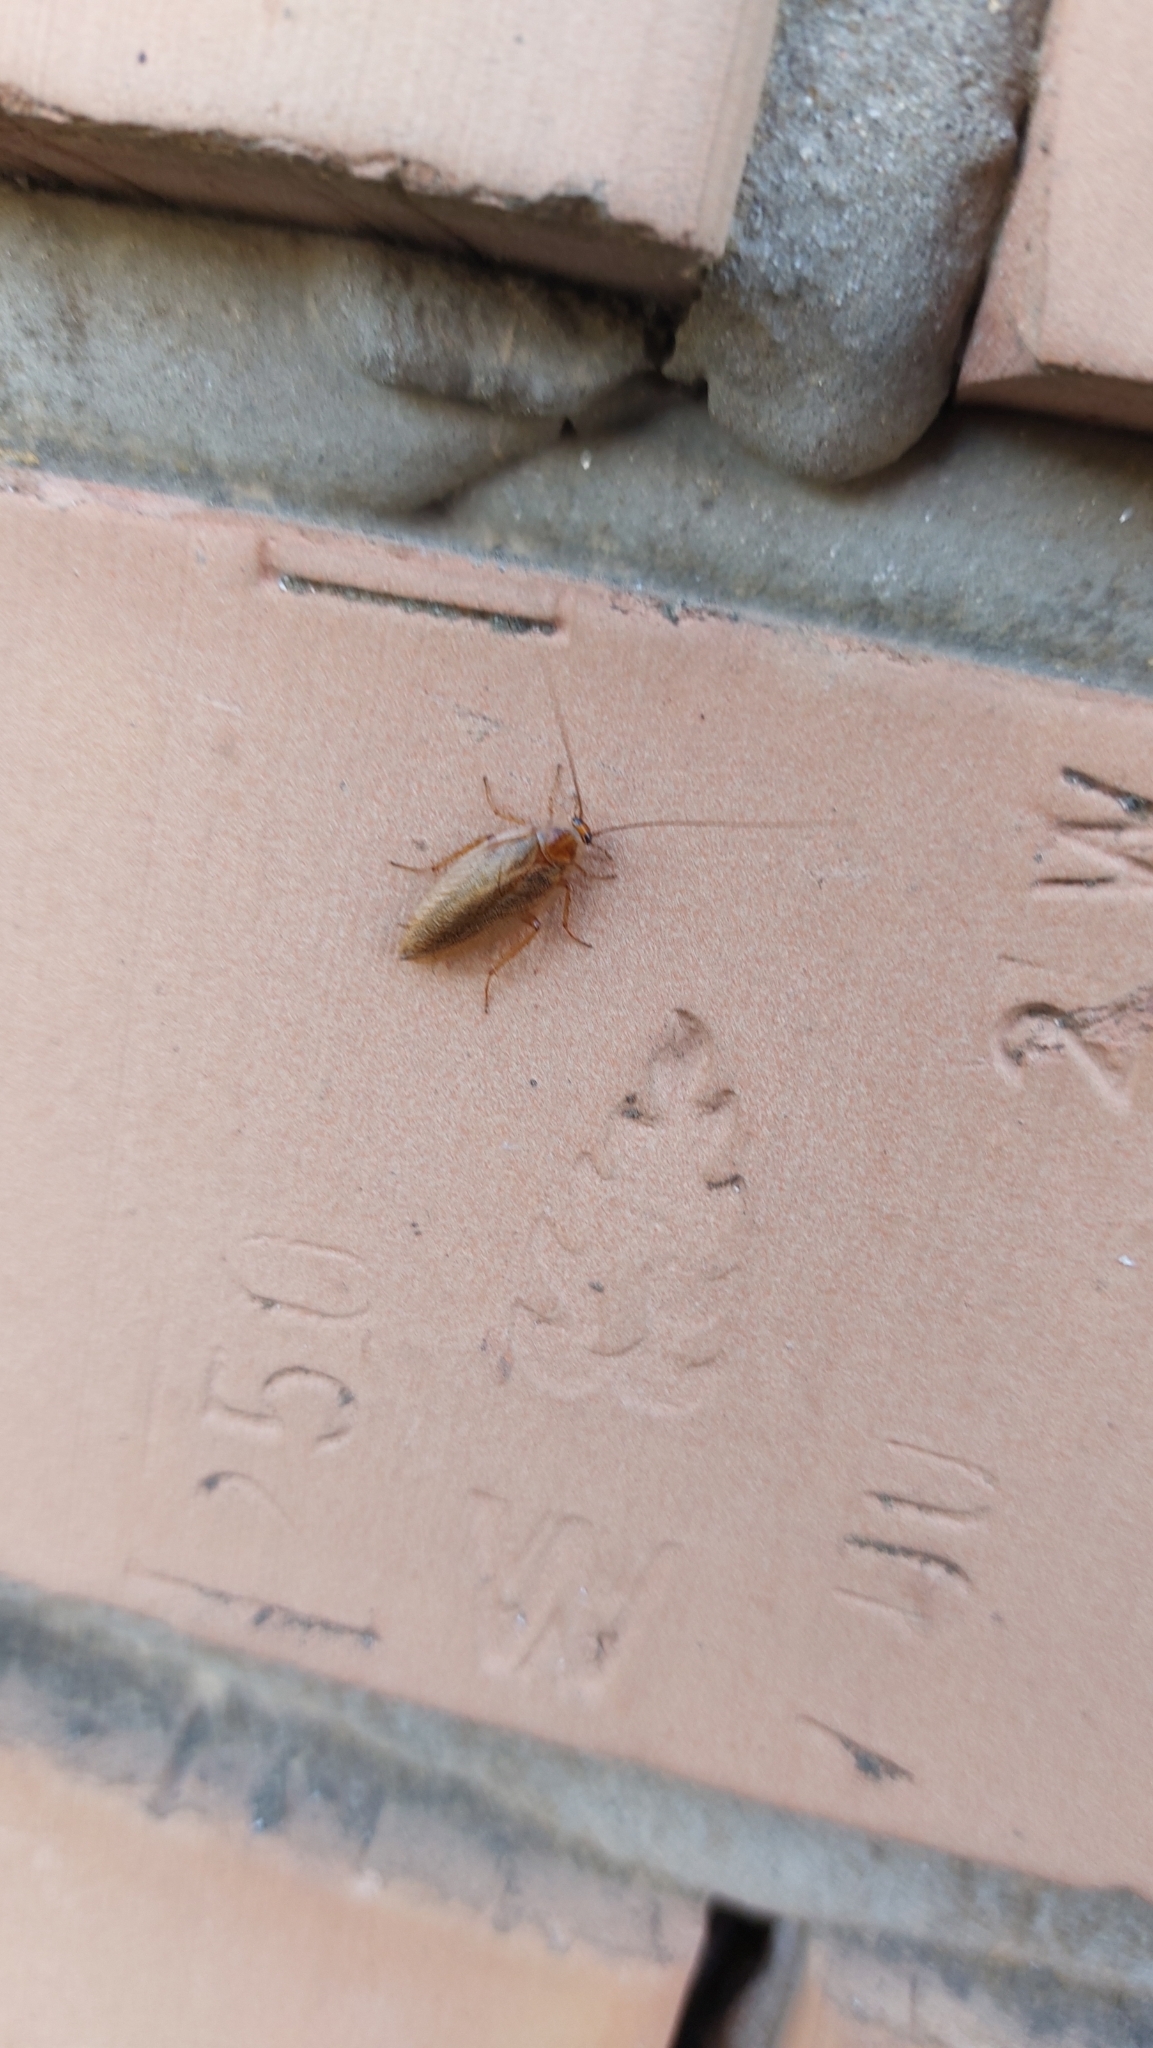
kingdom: Animalia
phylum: Arthropoda
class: Insecta
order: Blattodea
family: Ectobiidae
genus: Ectobius
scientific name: Ectobius vittiventris
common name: Garden cockroach
